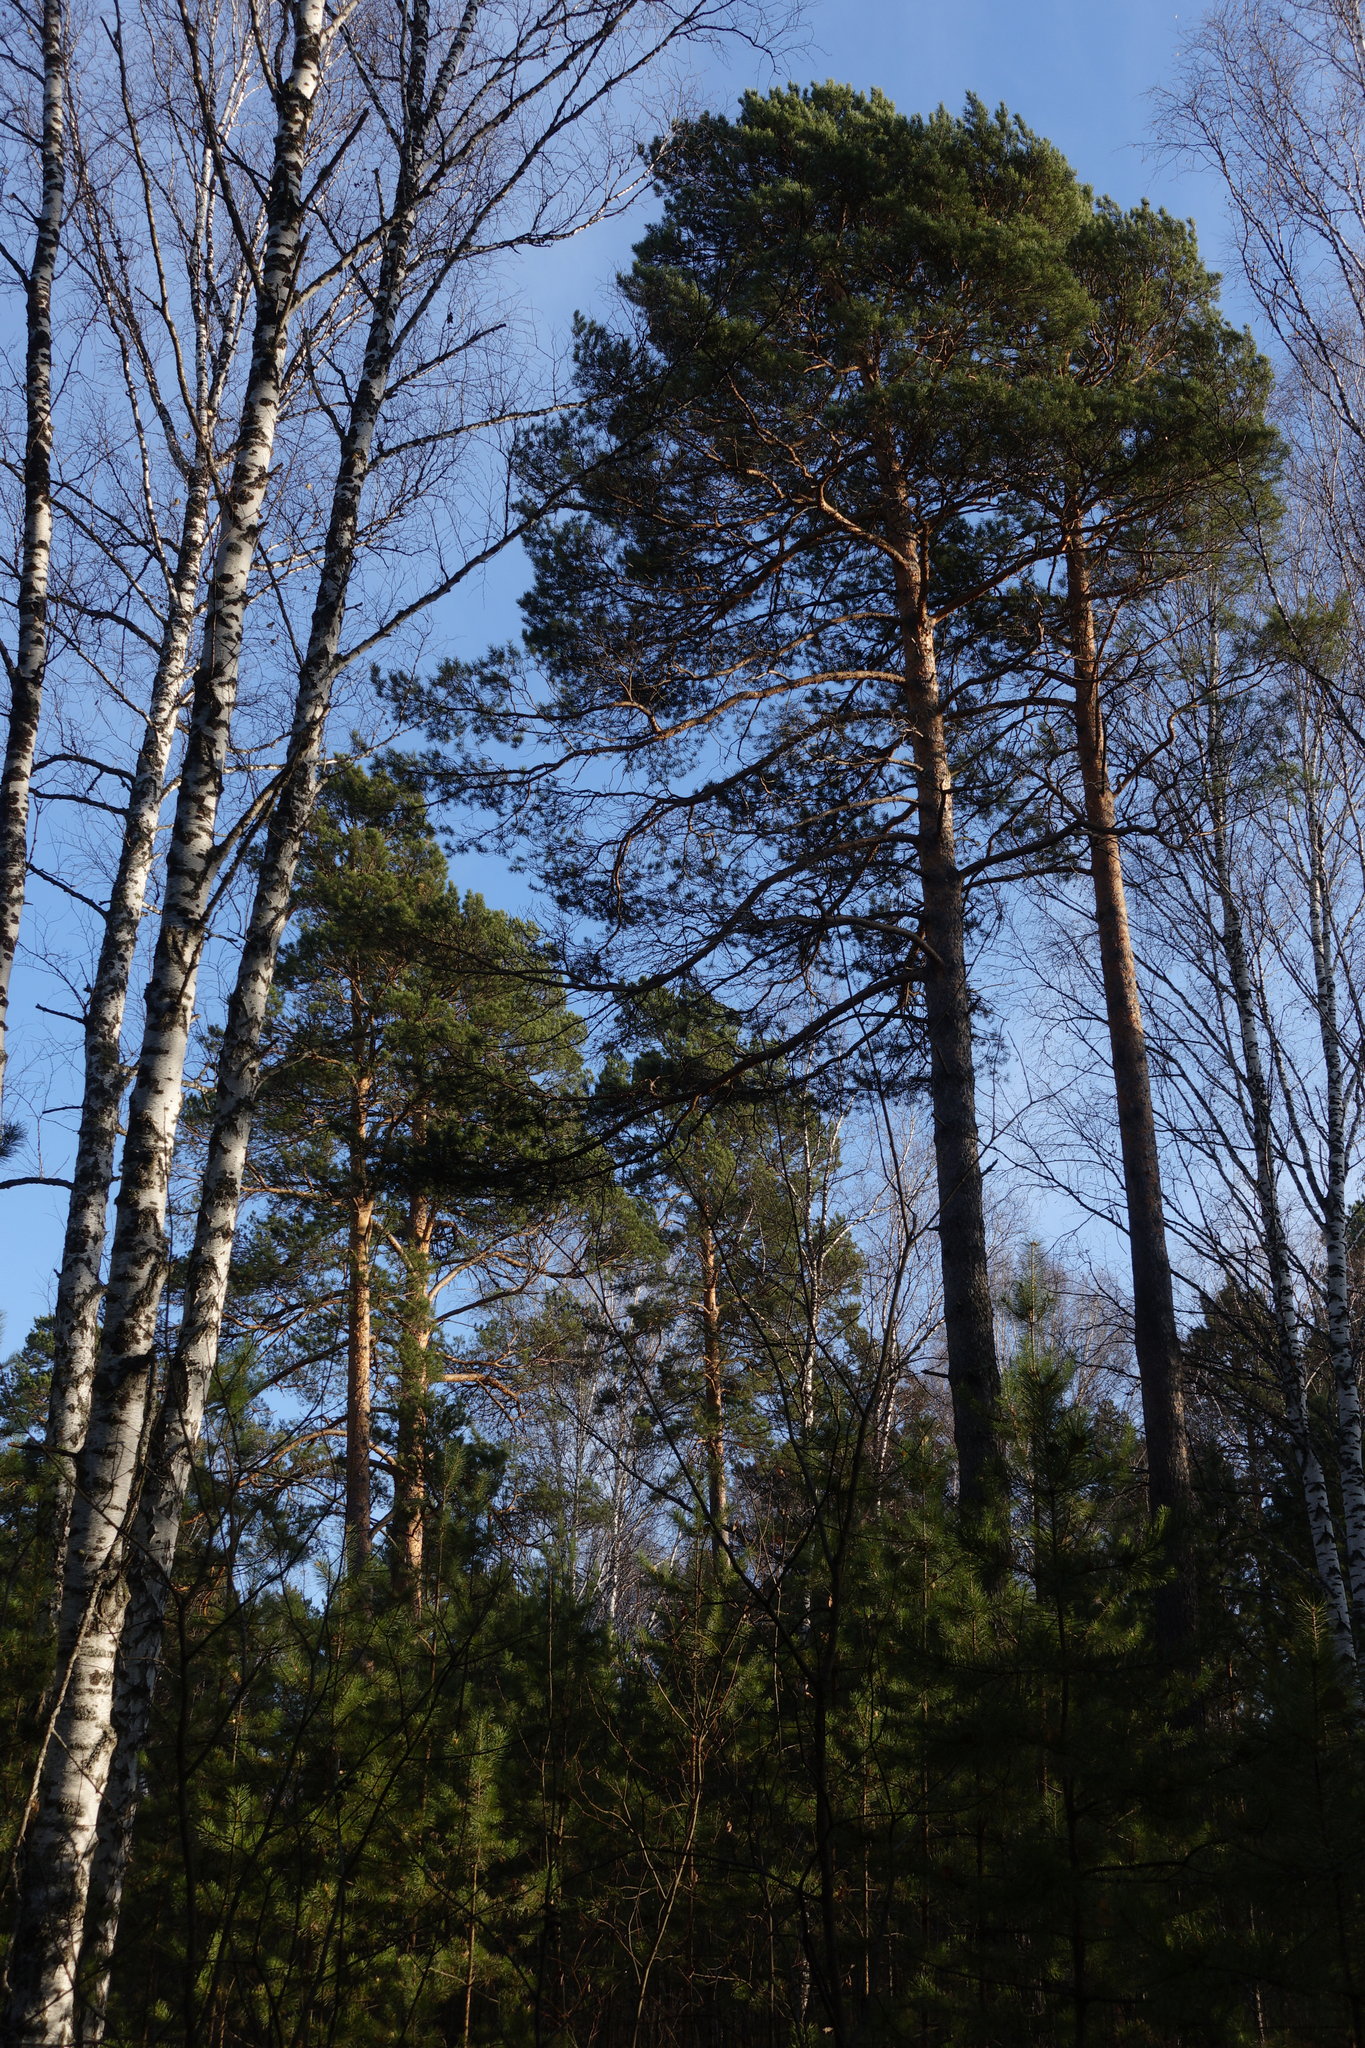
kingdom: Plantae
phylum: Tracheophyta
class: Pinopsida
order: Pinales
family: Pinaceae
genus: Pinus
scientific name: Pinus sylvestris
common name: Scots pine
